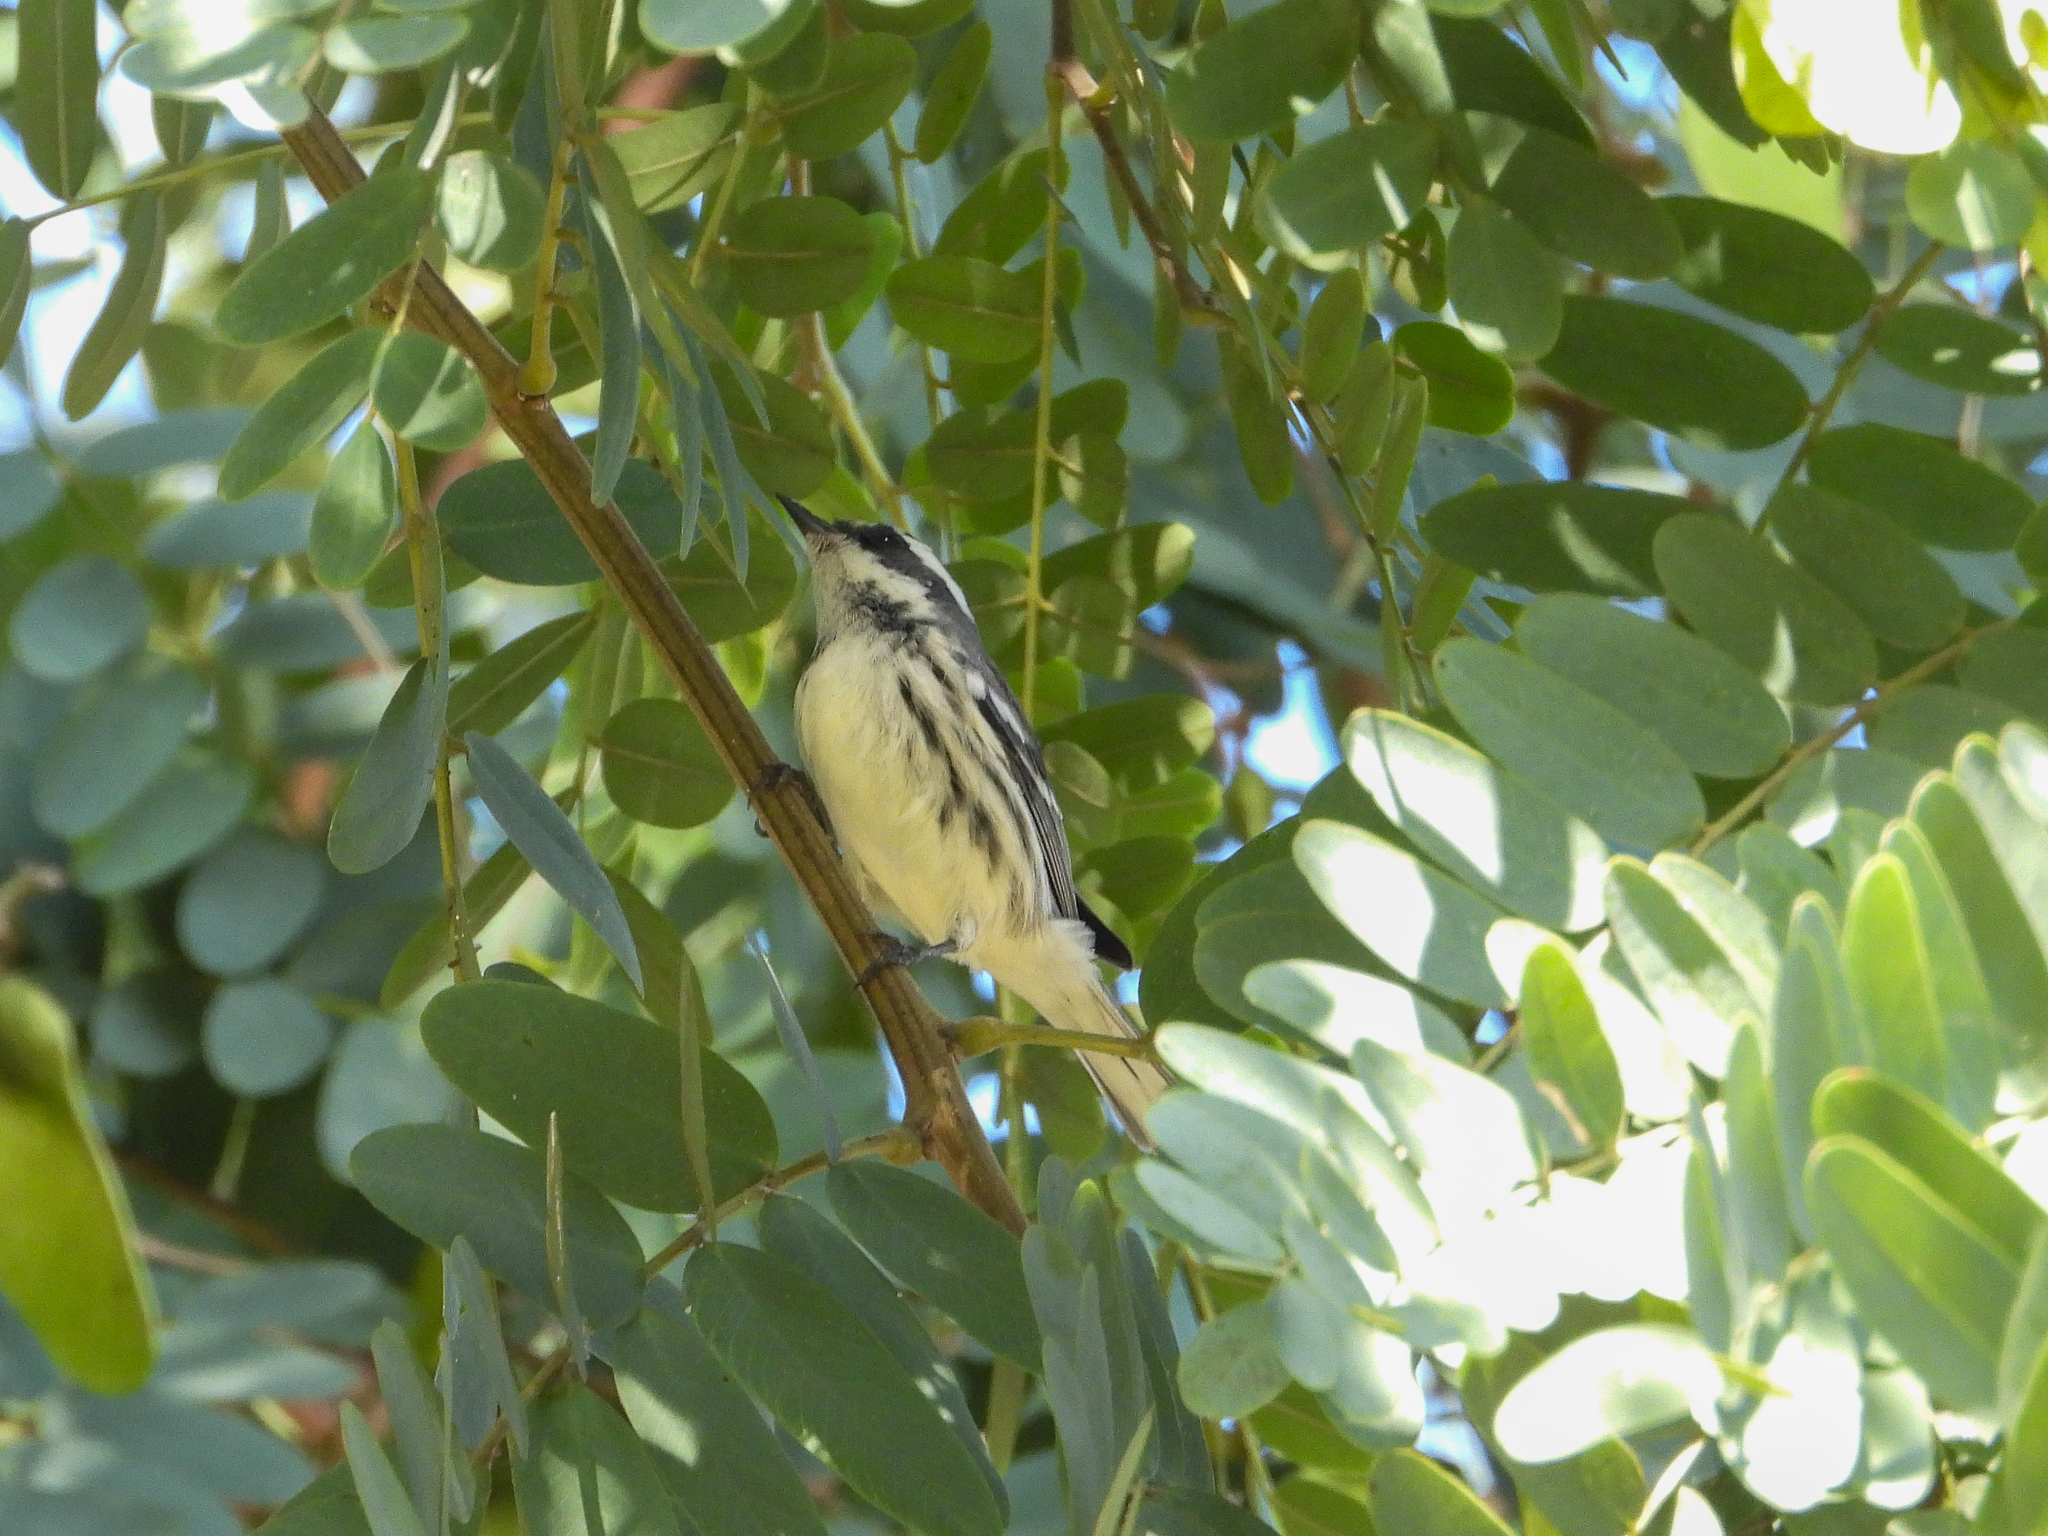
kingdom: Animalia
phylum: Chordata
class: Aves
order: Passeriformes
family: Parulidae
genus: Setophaga
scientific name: Setophaga nigrescens
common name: Black-throated gray warbler
